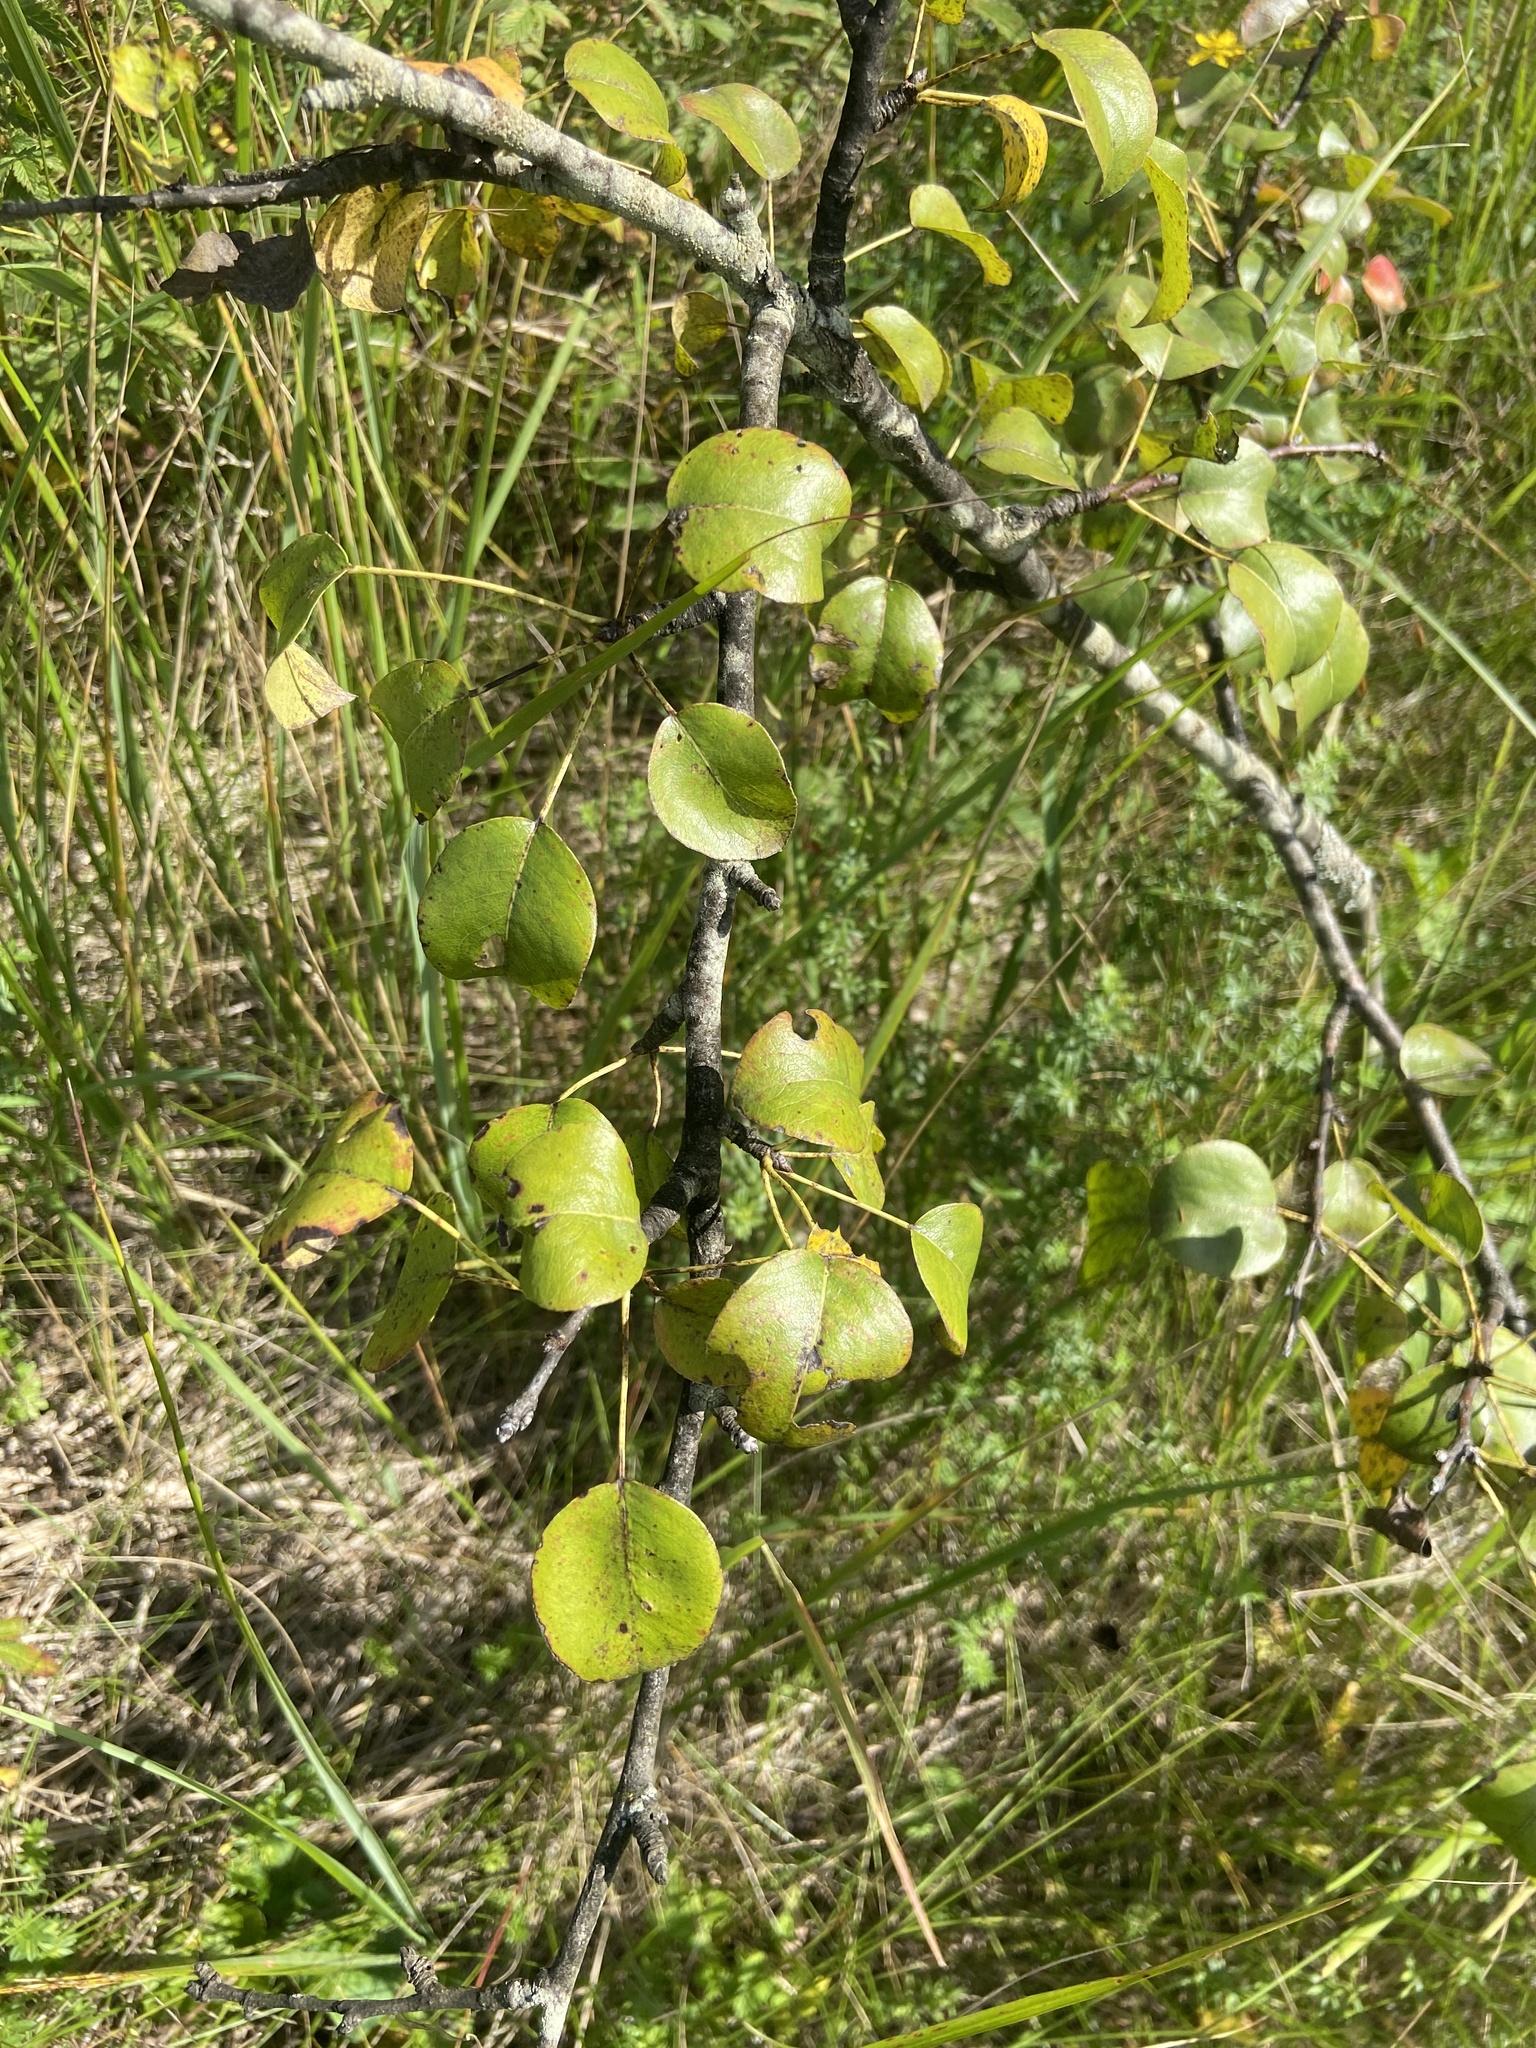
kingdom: Plantae
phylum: Tracheophyta
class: Magnoliopsida
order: Rosales
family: Rosaceae
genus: Pyrus
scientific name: Pyrus communis
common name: Pear
